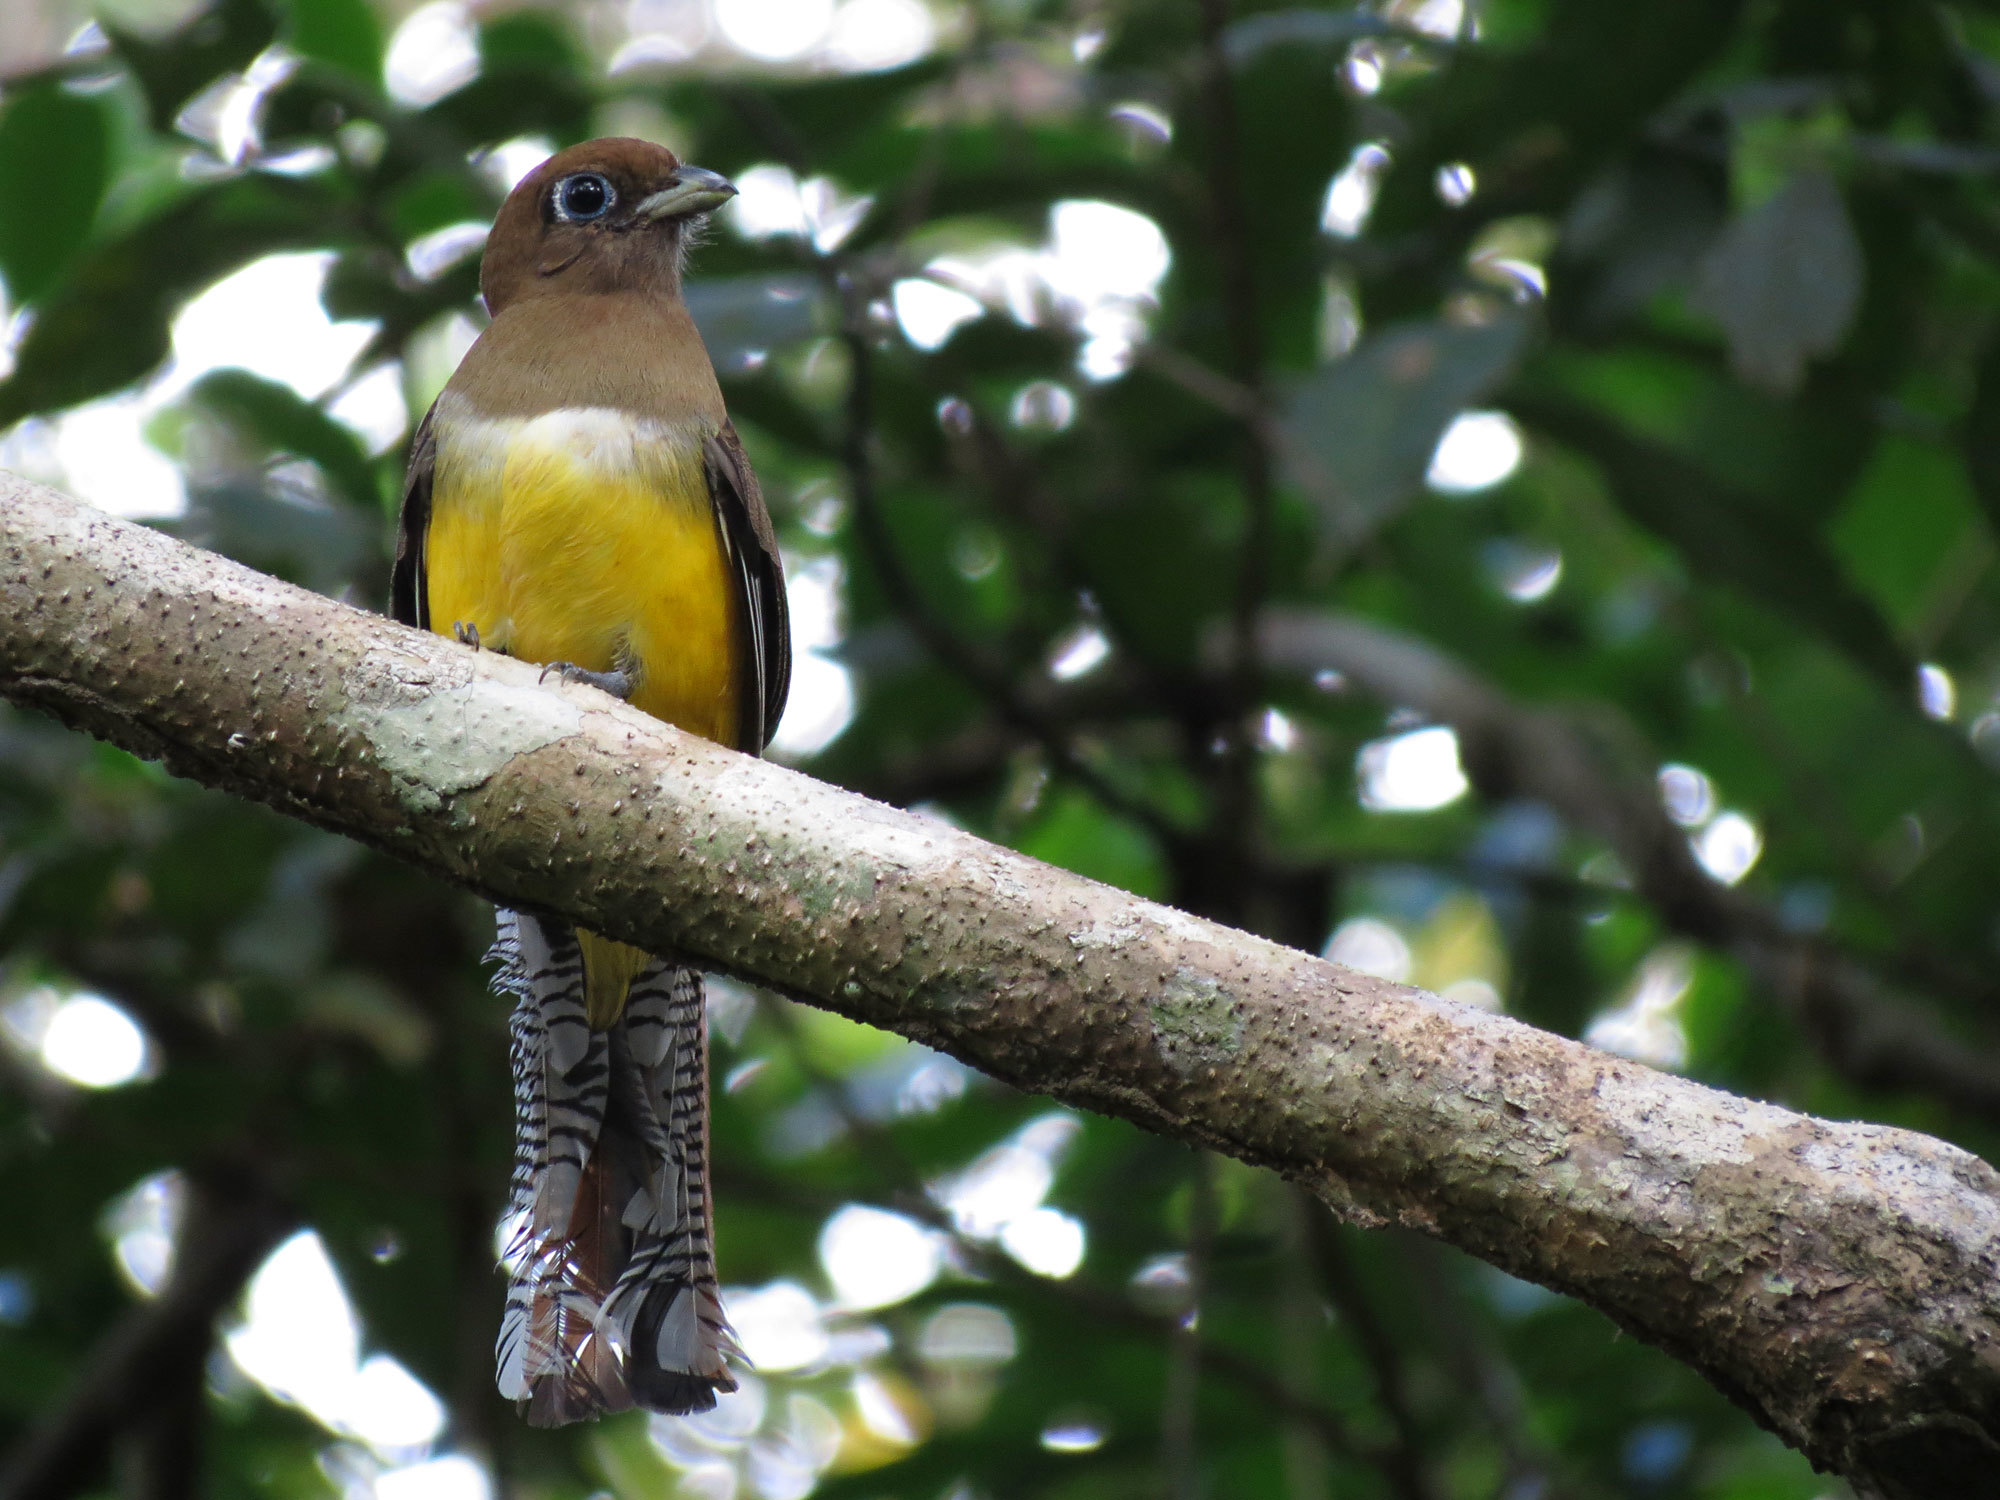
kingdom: Animalia
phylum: Chordata
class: Aves
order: Trogoniformes
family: Trogonidae
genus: Trogon
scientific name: Trogon rufus
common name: Black-throated trogon
